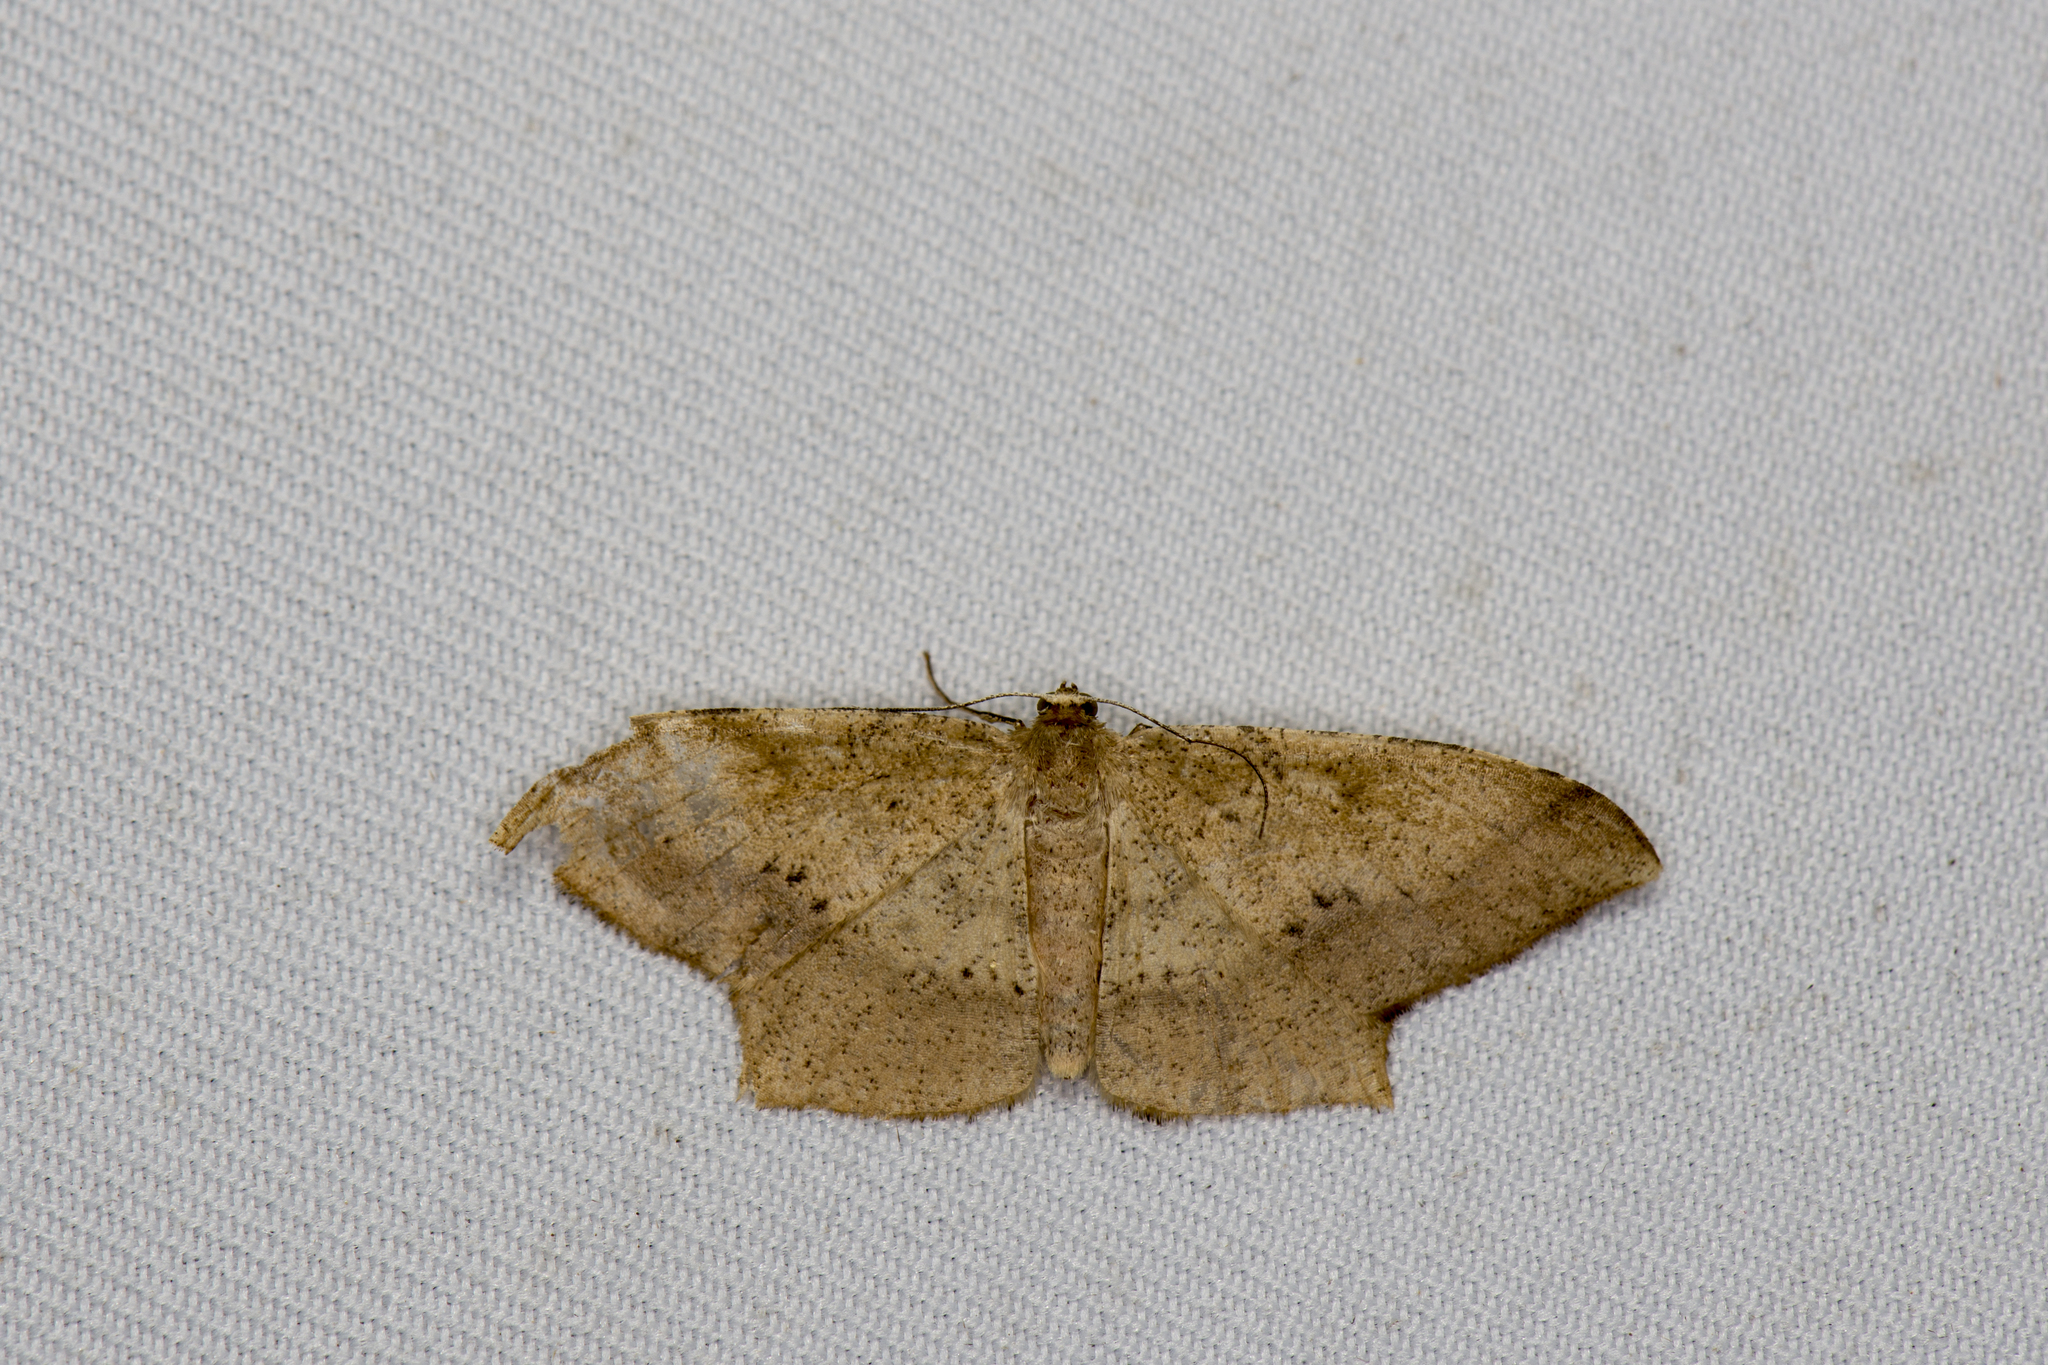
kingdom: Animalia
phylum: Arthropoda
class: Insecta
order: Lepidoptera
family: Geometridae
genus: Krananda
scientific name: Krananda falcata
